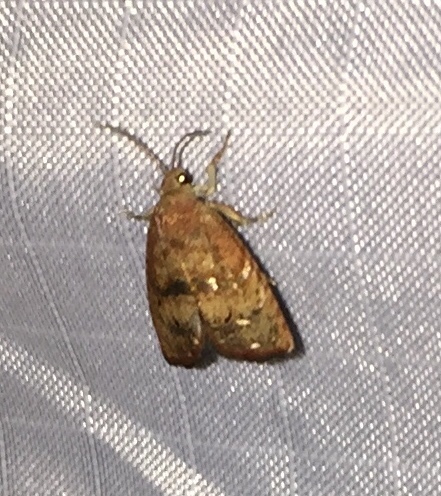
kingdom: Animalia
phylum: Arthropoda
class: Insecta
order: Lepidoptera
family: Tortricidae
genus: Cydia
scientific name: Cydia latiferreana
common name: Filbertworm moth
